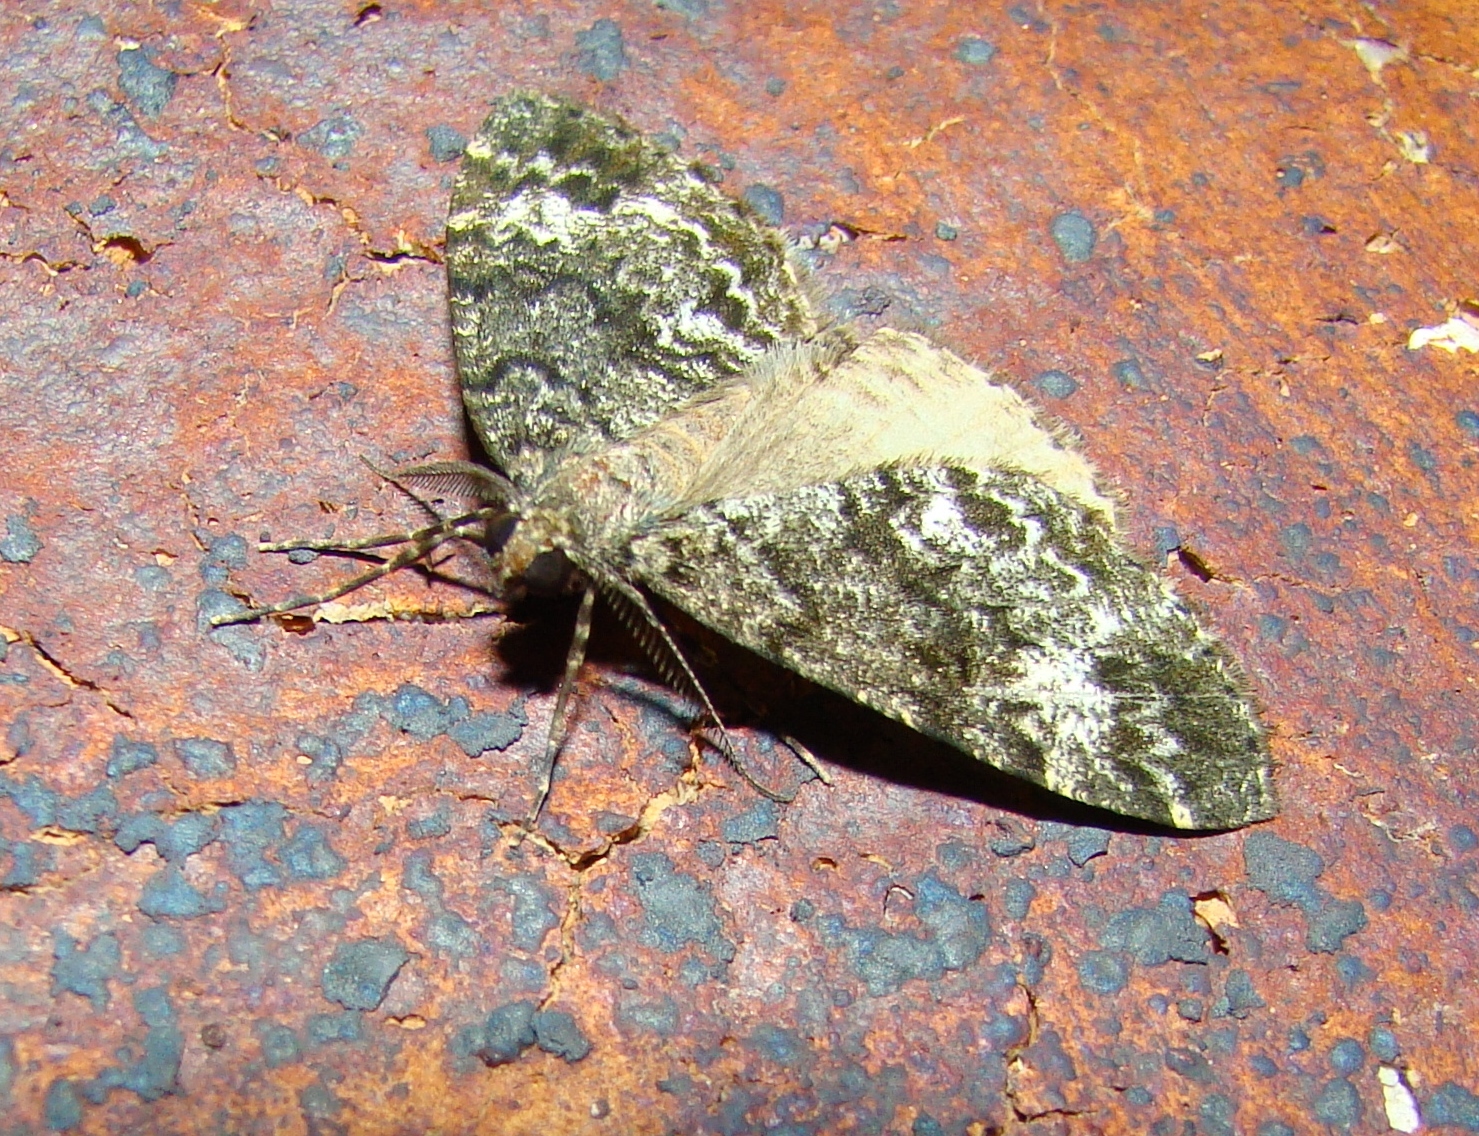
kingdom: Animalia
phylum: Arthropoda
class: Insecta
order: Lepidoptera
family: Geometridae
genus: Pseudocoremia
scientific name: Pseudocoremia suavis
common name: Common forest looper
